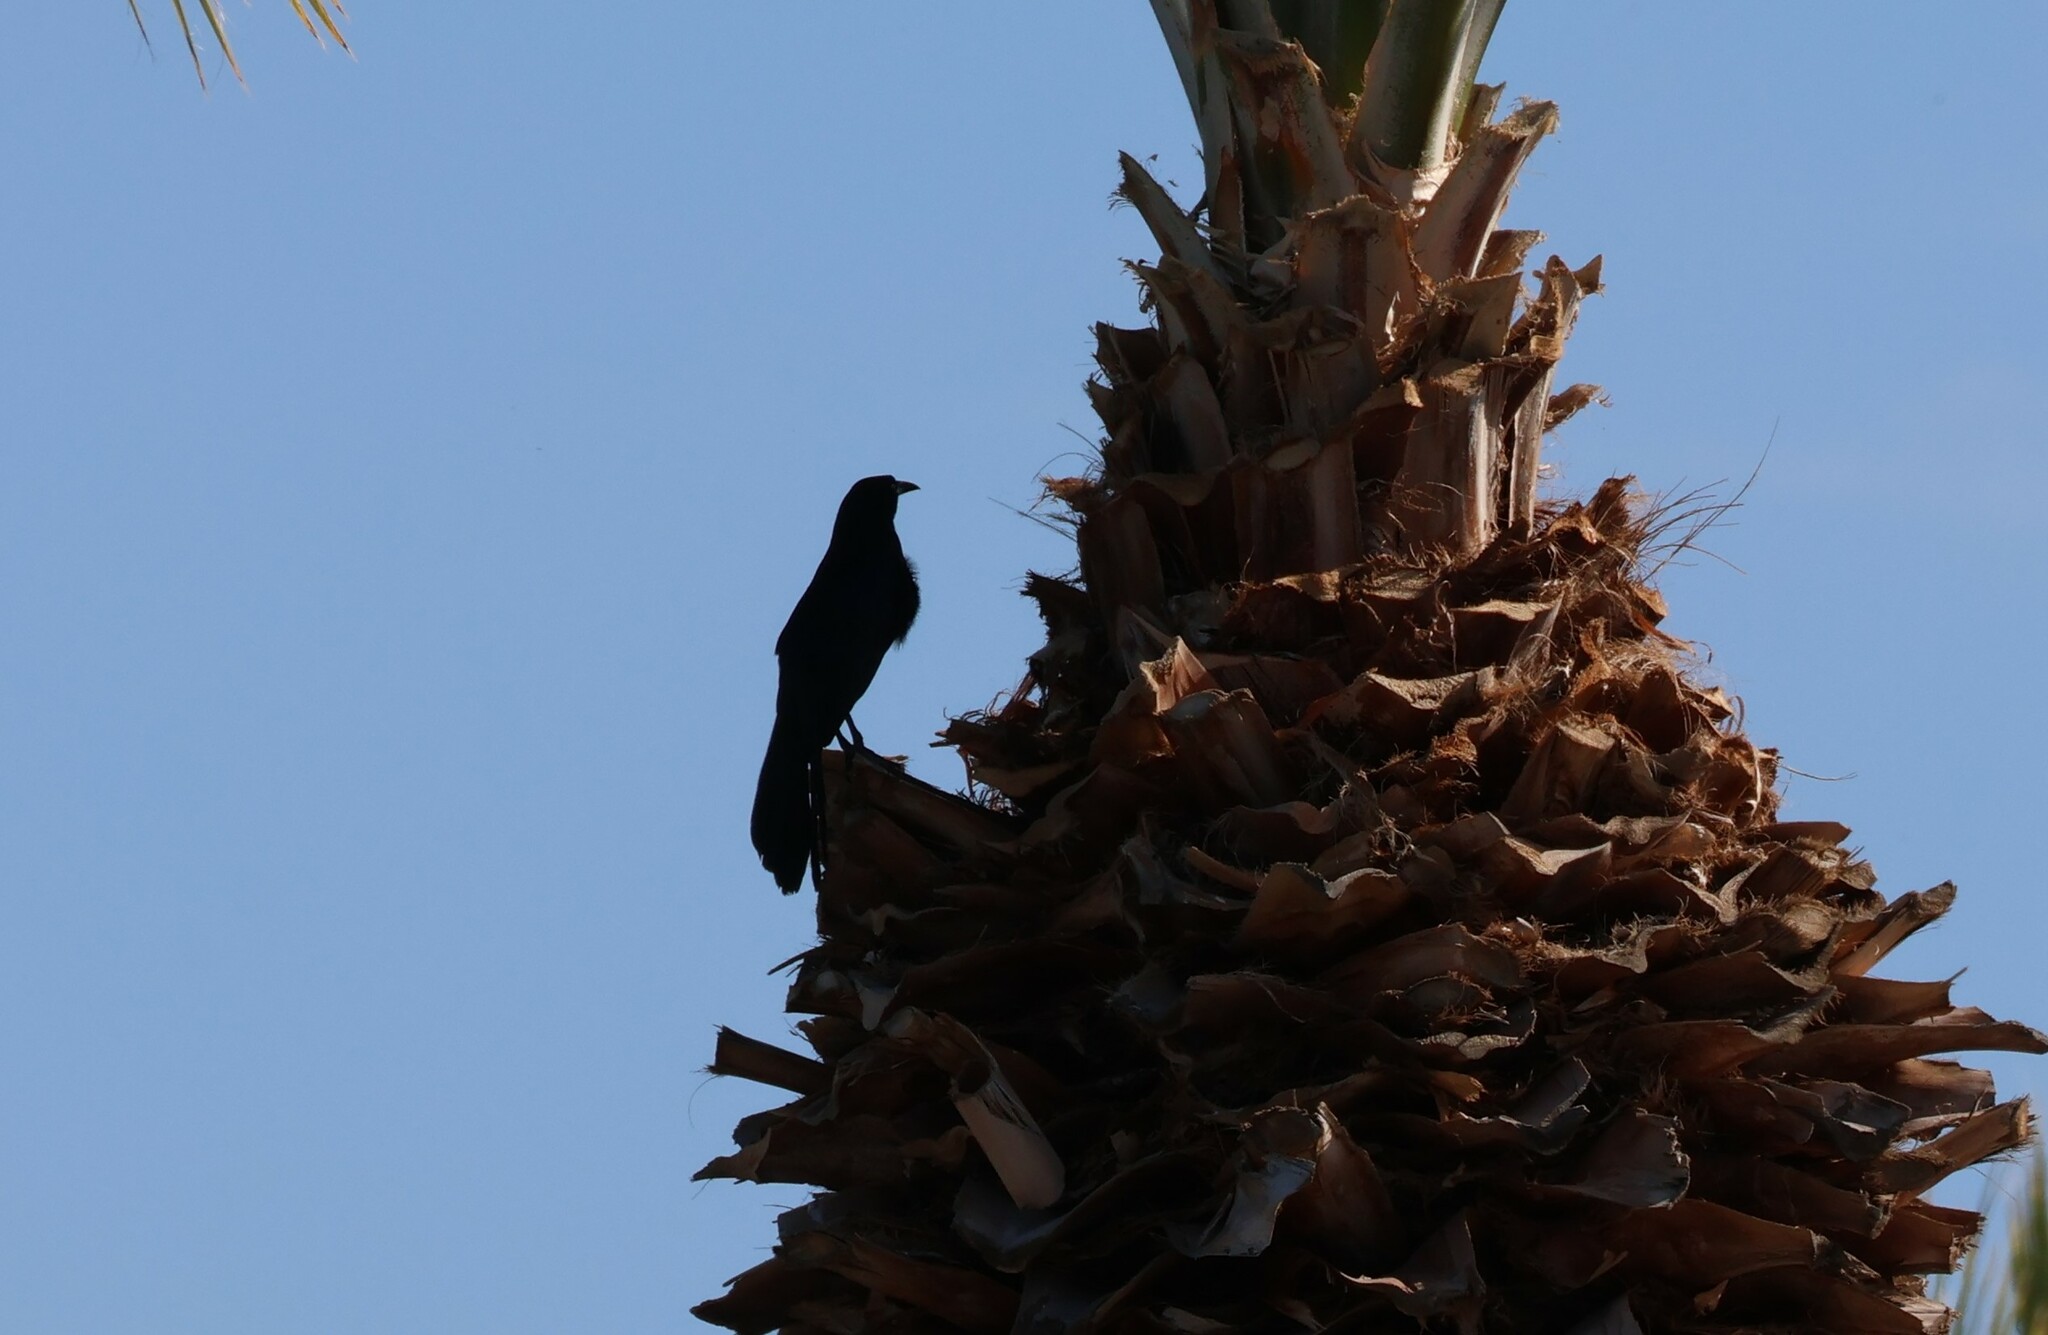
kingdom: Animalia
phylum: Chordata
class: Aves
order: Passeriformes
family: Icteridae
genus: Quiscalus
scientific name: Quiscalus mexicanus
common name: Great-tailed grackle
